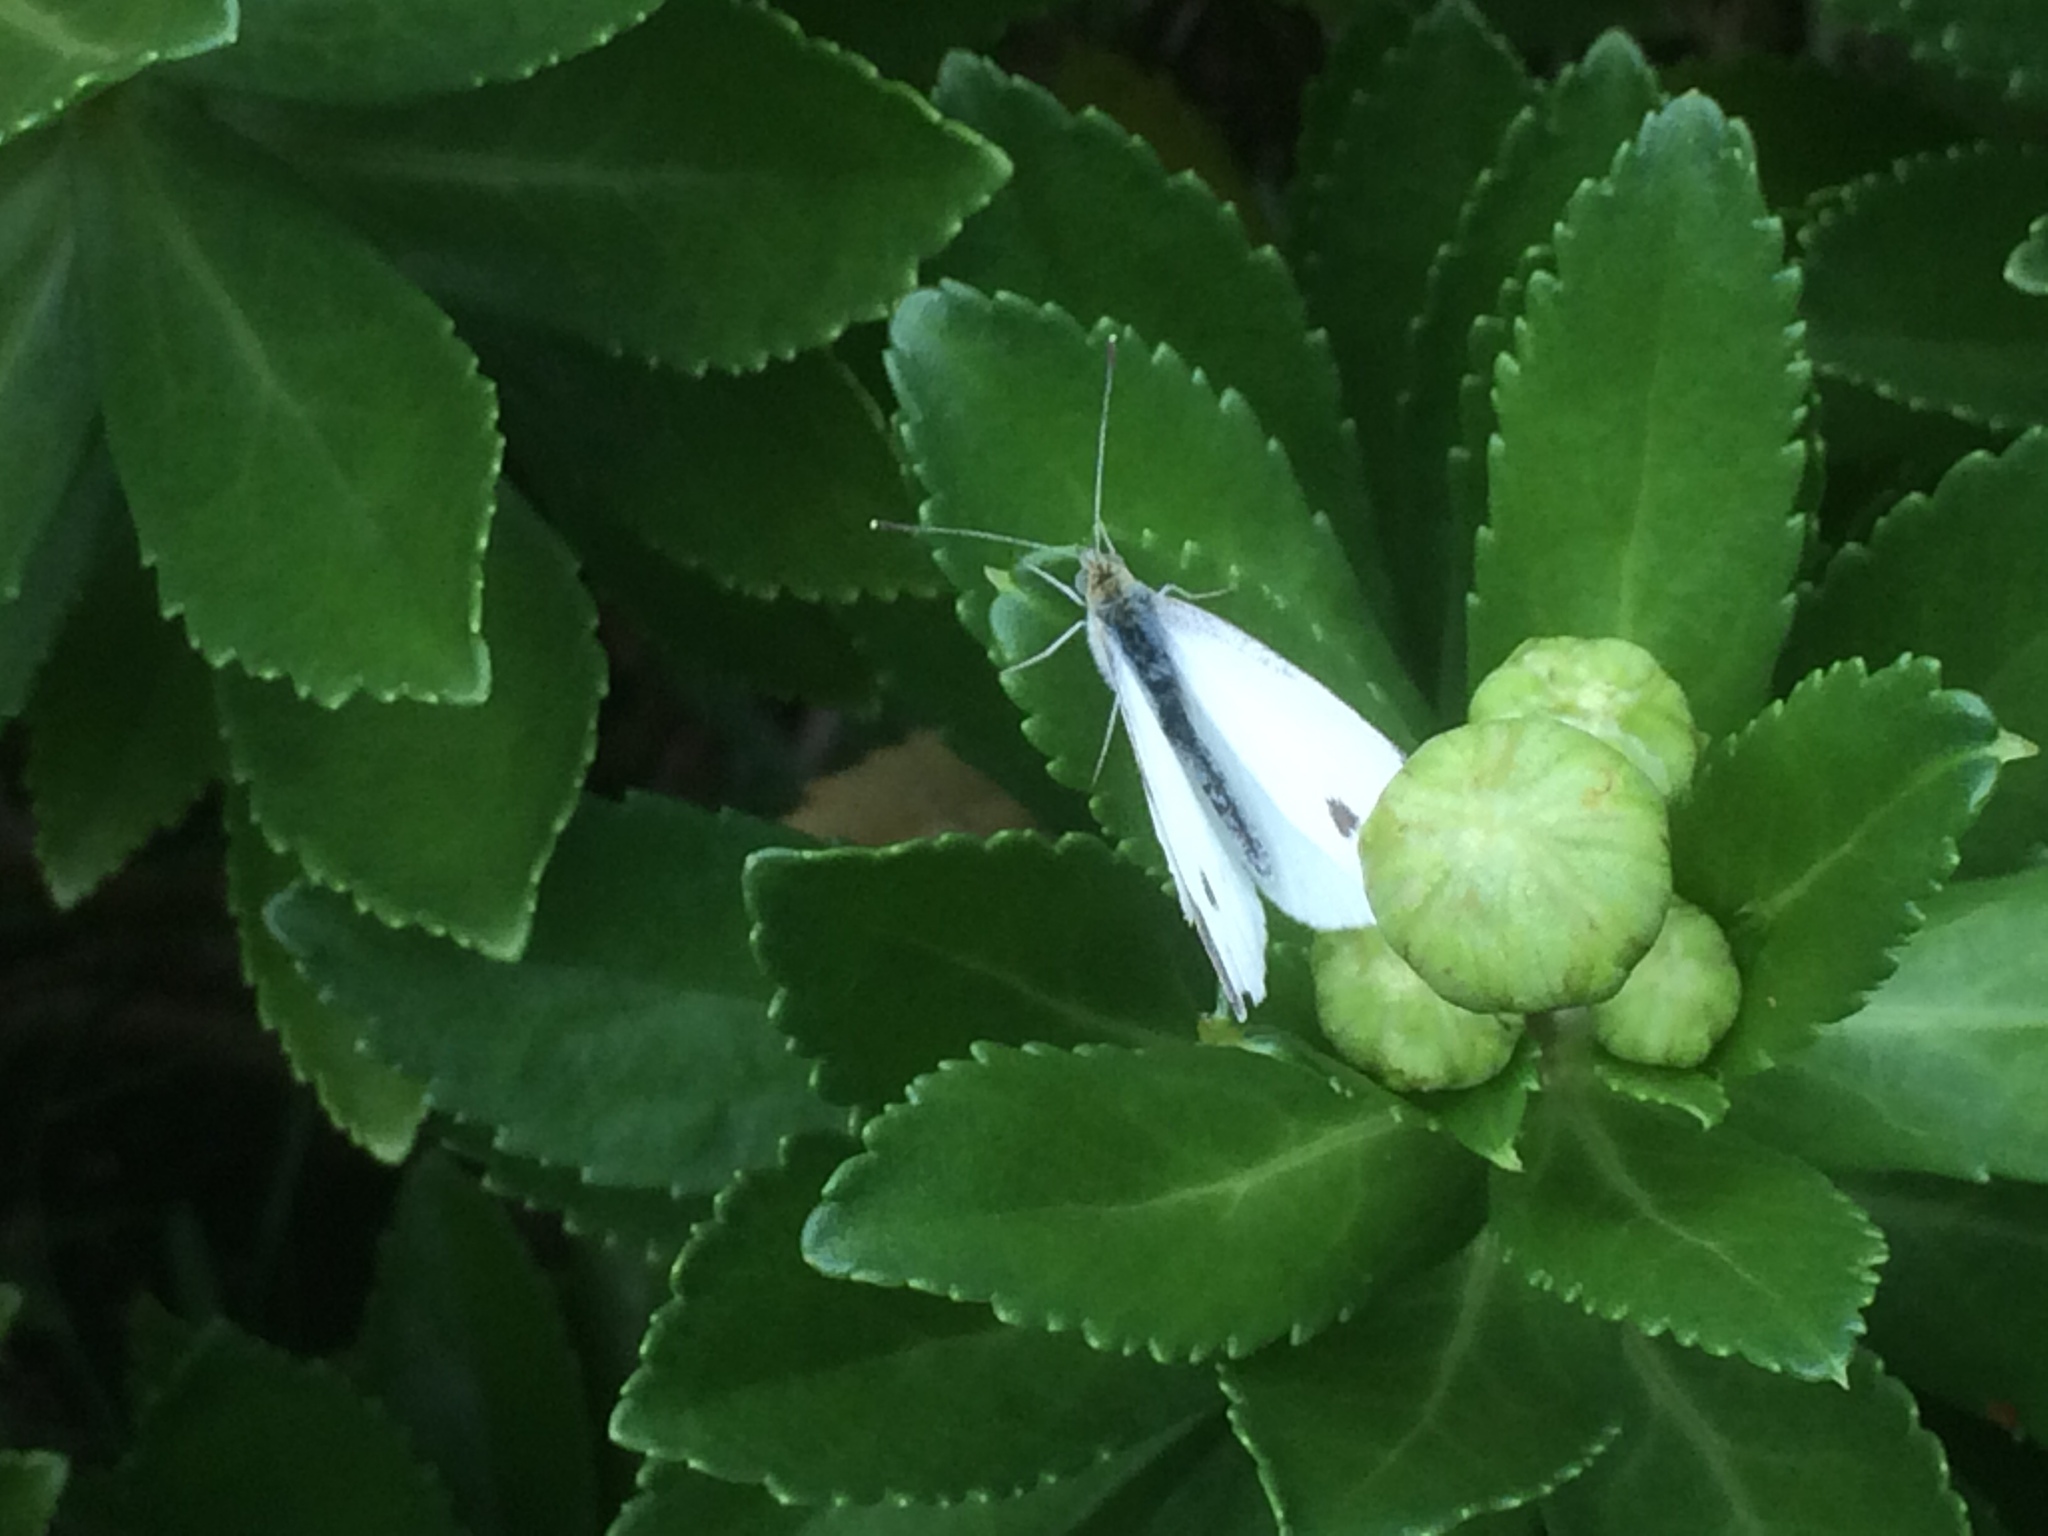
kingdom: Animalia
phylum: Arthropoda
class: Insecta
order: Lepidoptera
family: Pieridae
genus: Pieris
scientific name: Pieris rapae
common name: Small white
